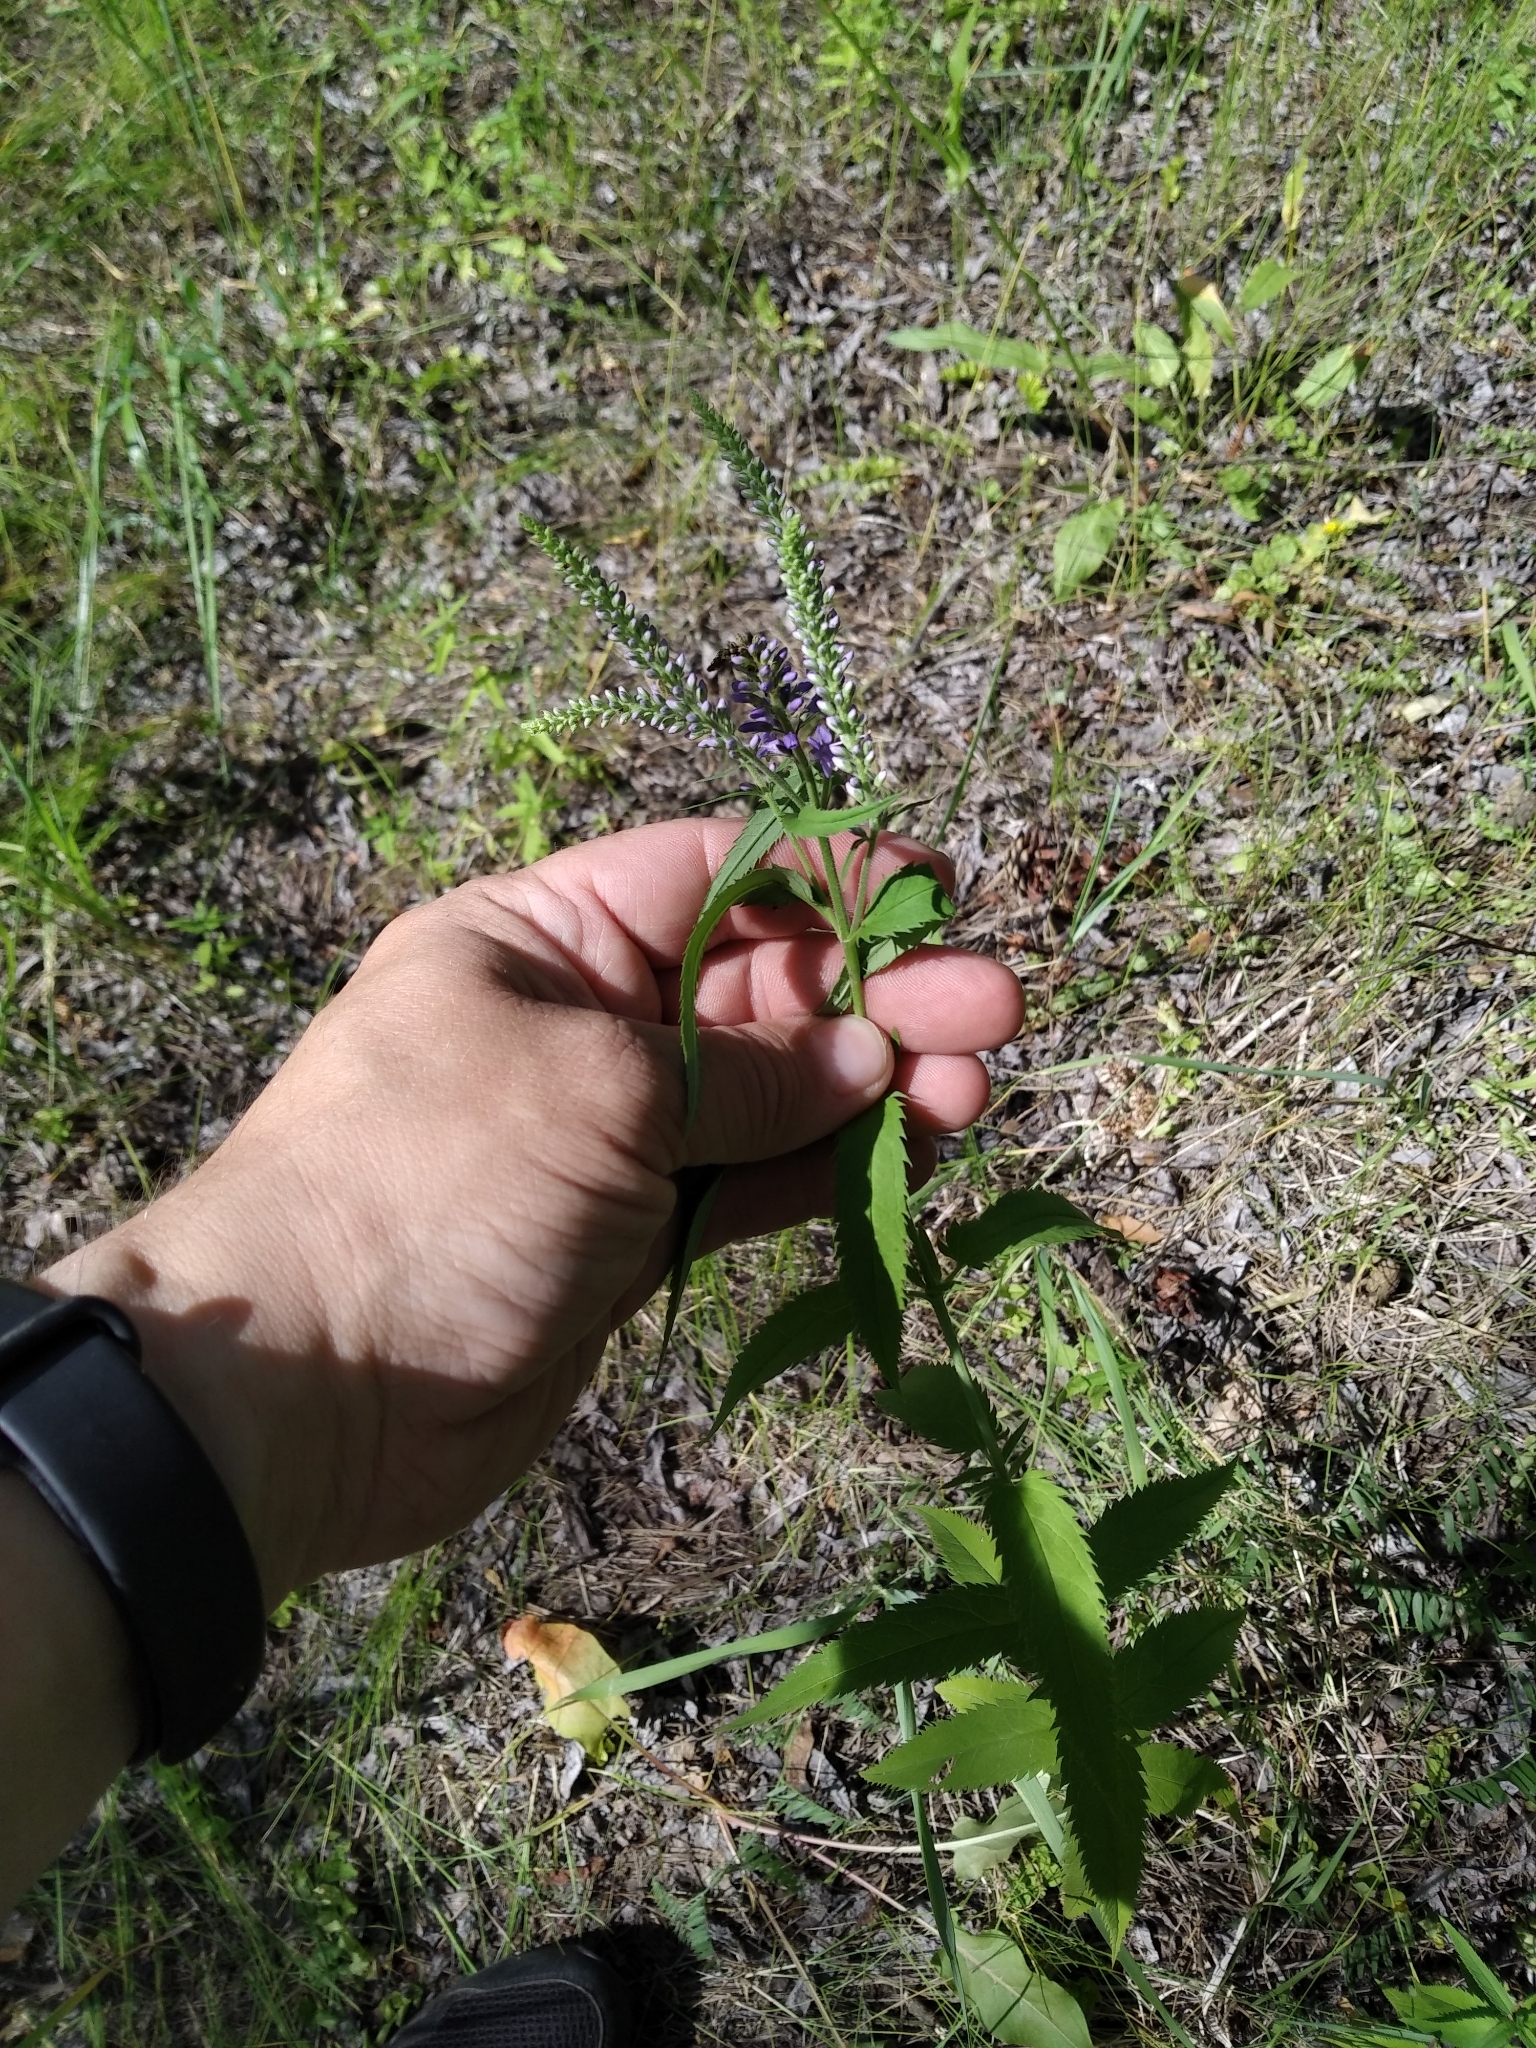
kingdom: Plantae
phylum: Tracheophyta
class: Magnoliopsida
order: Lamiales
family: Plantaginaceae
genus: Veronica
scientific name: Veronica longifolia
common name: Garden speedwell
